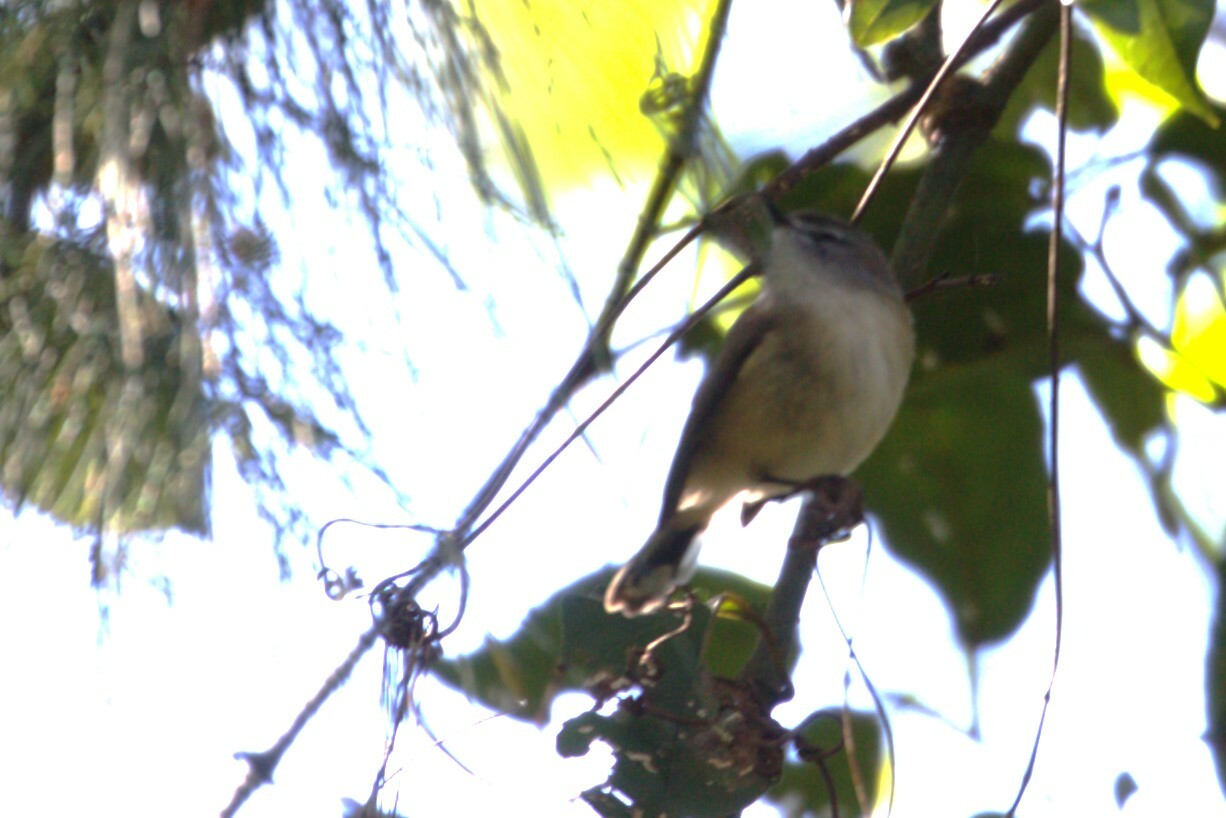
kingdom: Animalia
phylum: Chordata
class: Aves
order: Passeriformes
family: Acanthizidae
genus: Gerygone
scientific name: Gerygone mouki
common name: Brown gerygone
